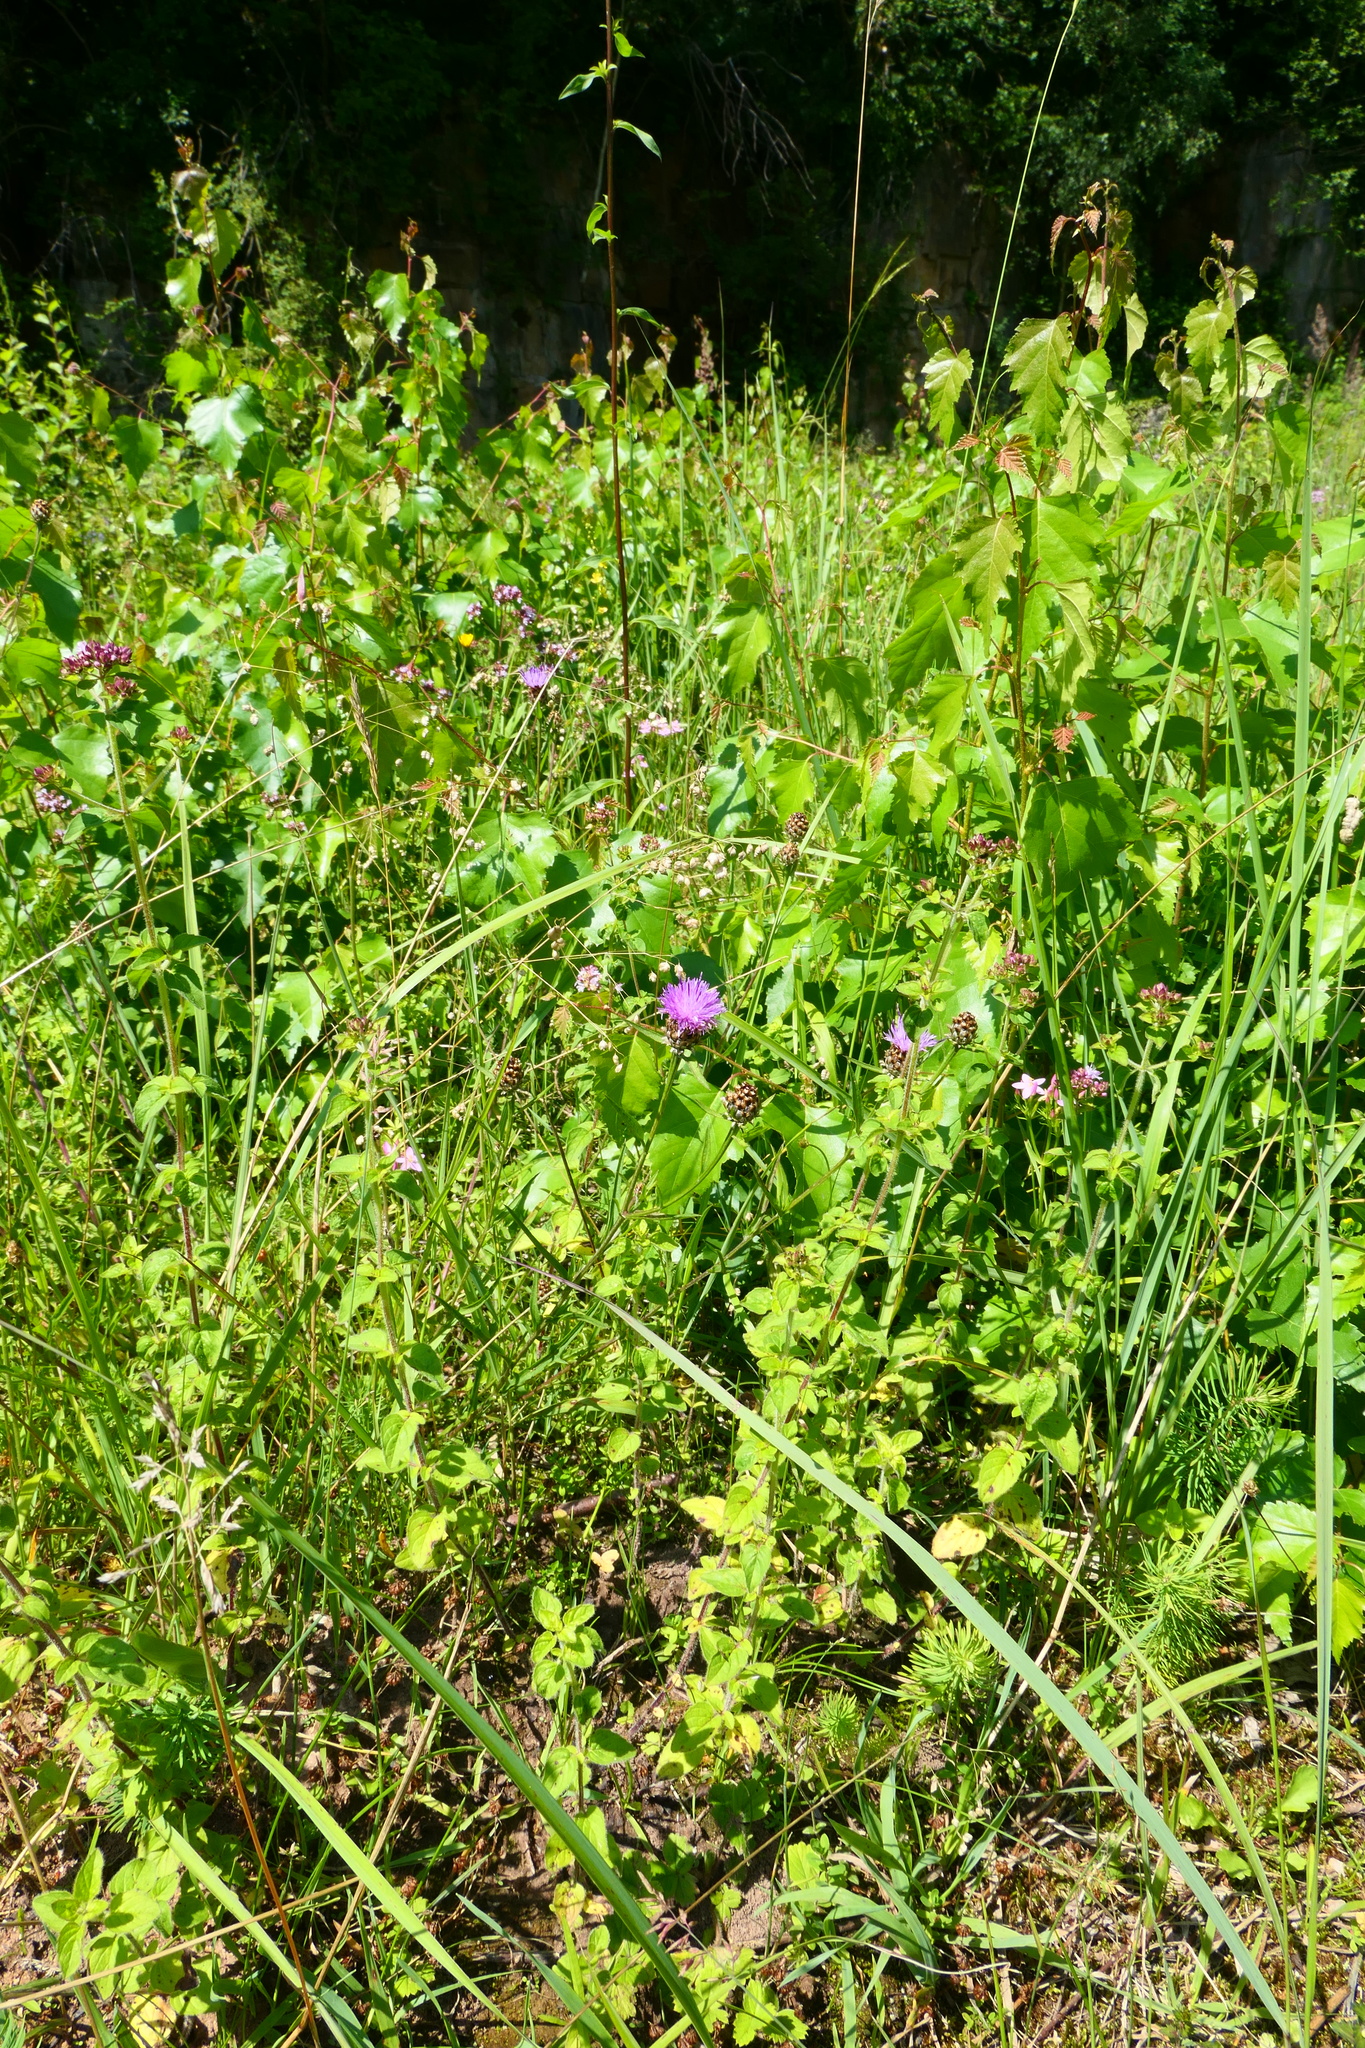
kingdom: Plantae
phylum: Tracheophyta
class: Magnoliopsida
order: Asterales
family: Asteraceae
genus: Centaurea
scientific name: Centaurea jacea
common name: Brown knapweed
